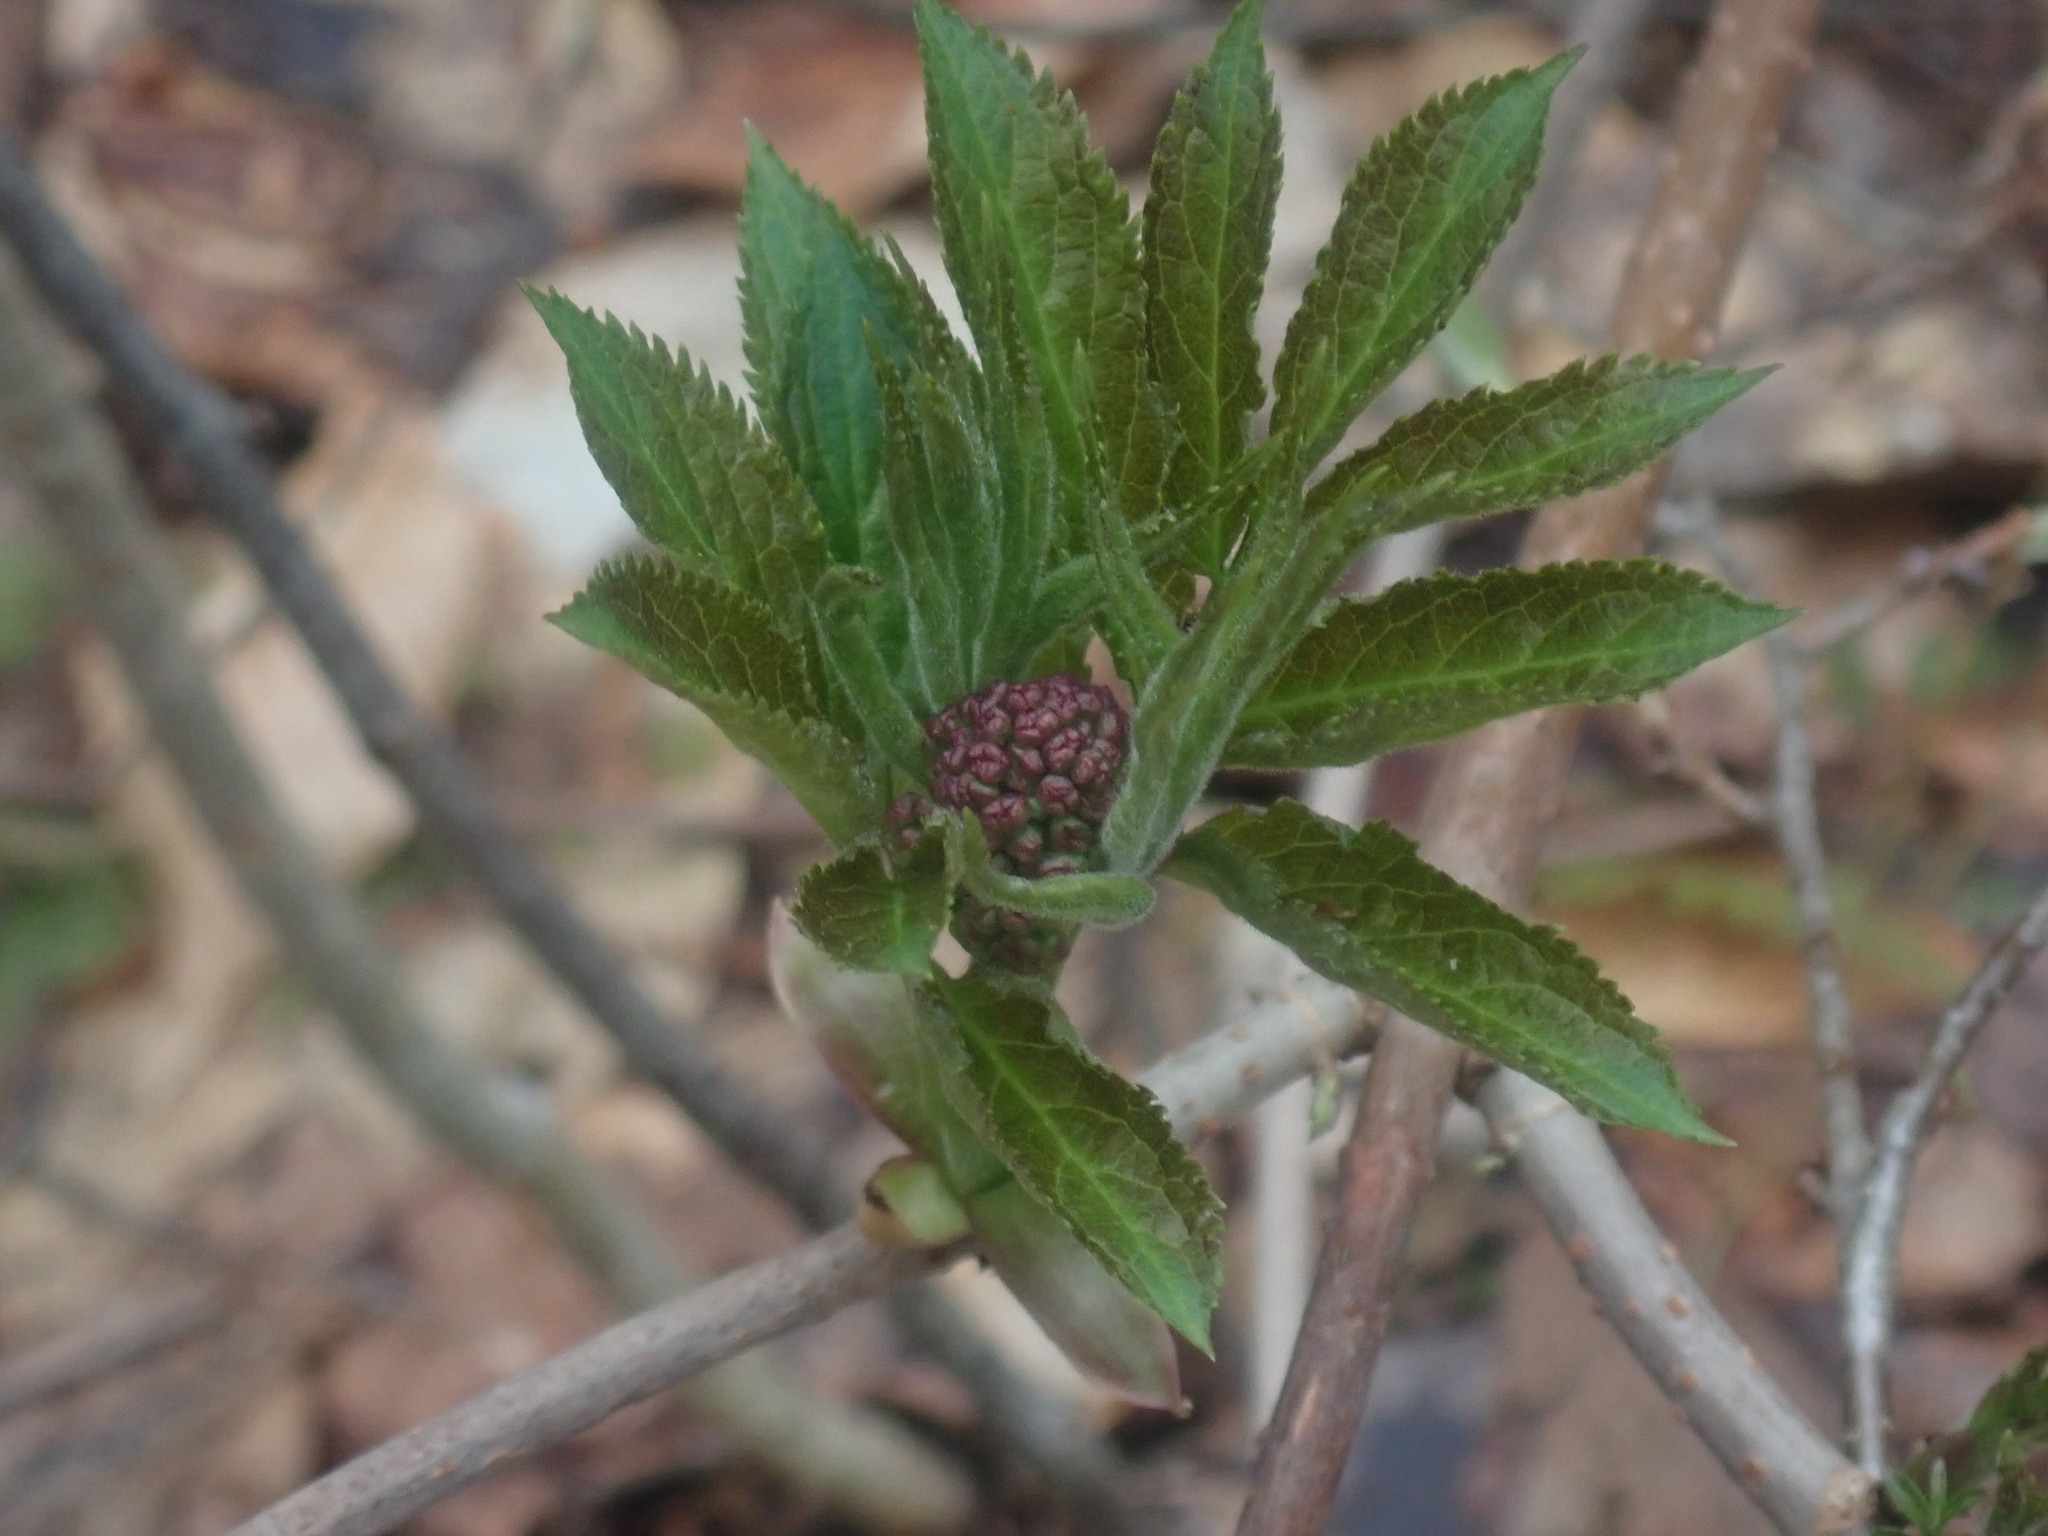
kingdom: Plantae
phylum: Tracheophyta
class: Magnoliopsida
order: Dipsacales
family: Viburnaceae
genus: Sambucus
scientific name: Sambucus racemosa
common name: Red-berried elder
